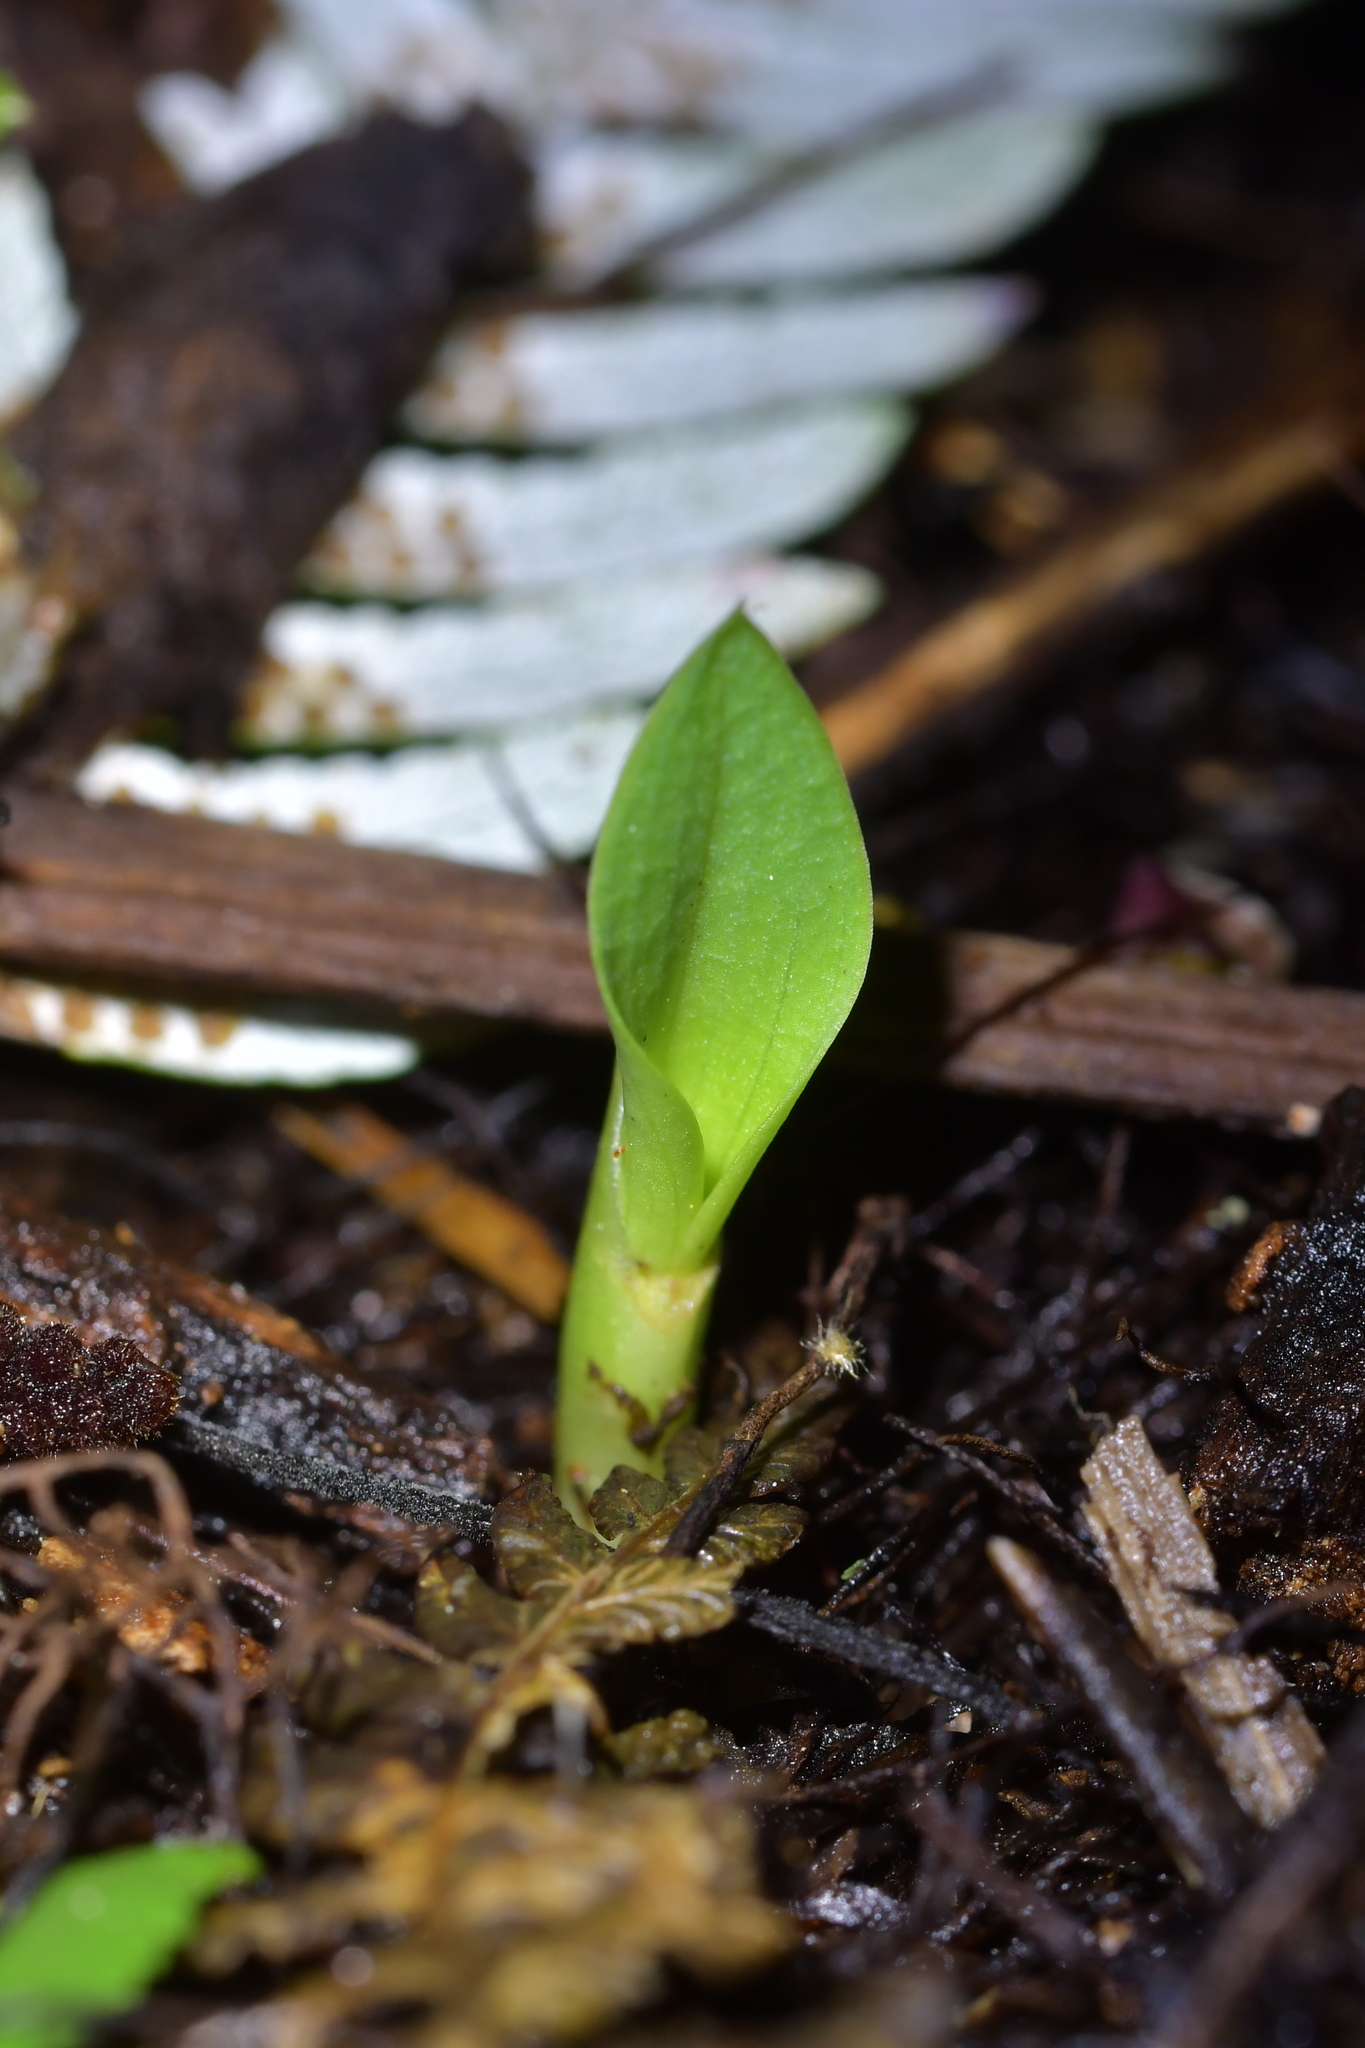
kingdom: Plantae
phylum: Tracheophyta
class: Liliopsida
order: Asparagales
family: Orchidaceae
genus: Chiloglottis
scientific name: Chiloglottis cornuta
